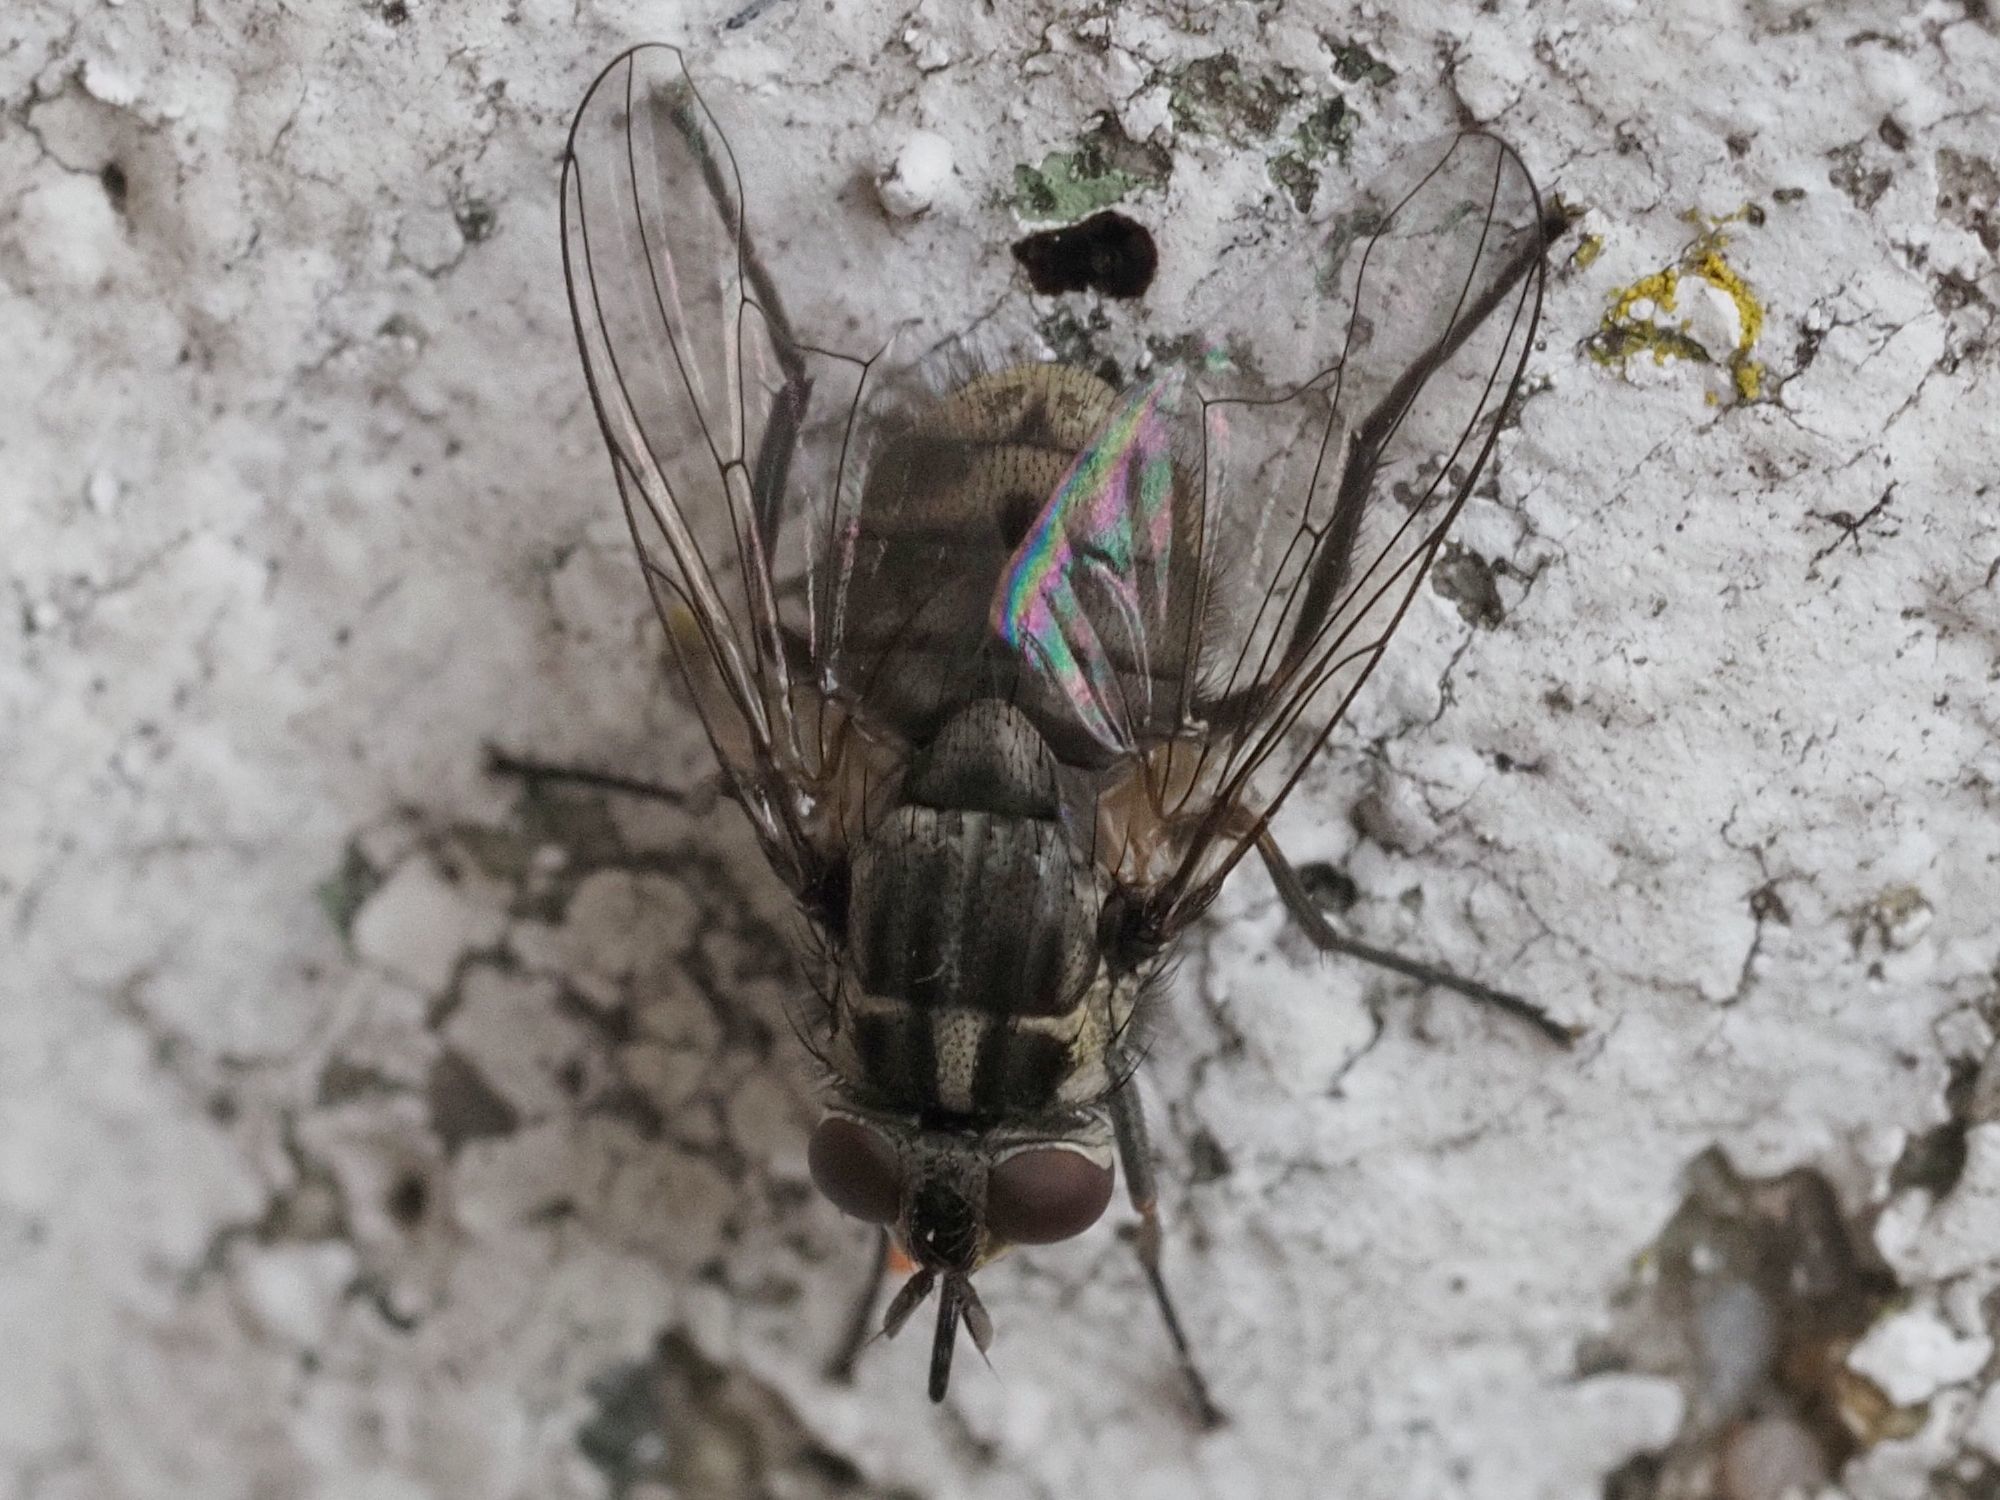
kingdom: Animalia
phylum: Arthropoda
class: Insecta
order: Diptera
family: Muscidae
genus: Stomoxys
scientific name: Stomoxys calcitrans
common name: Stable fly
